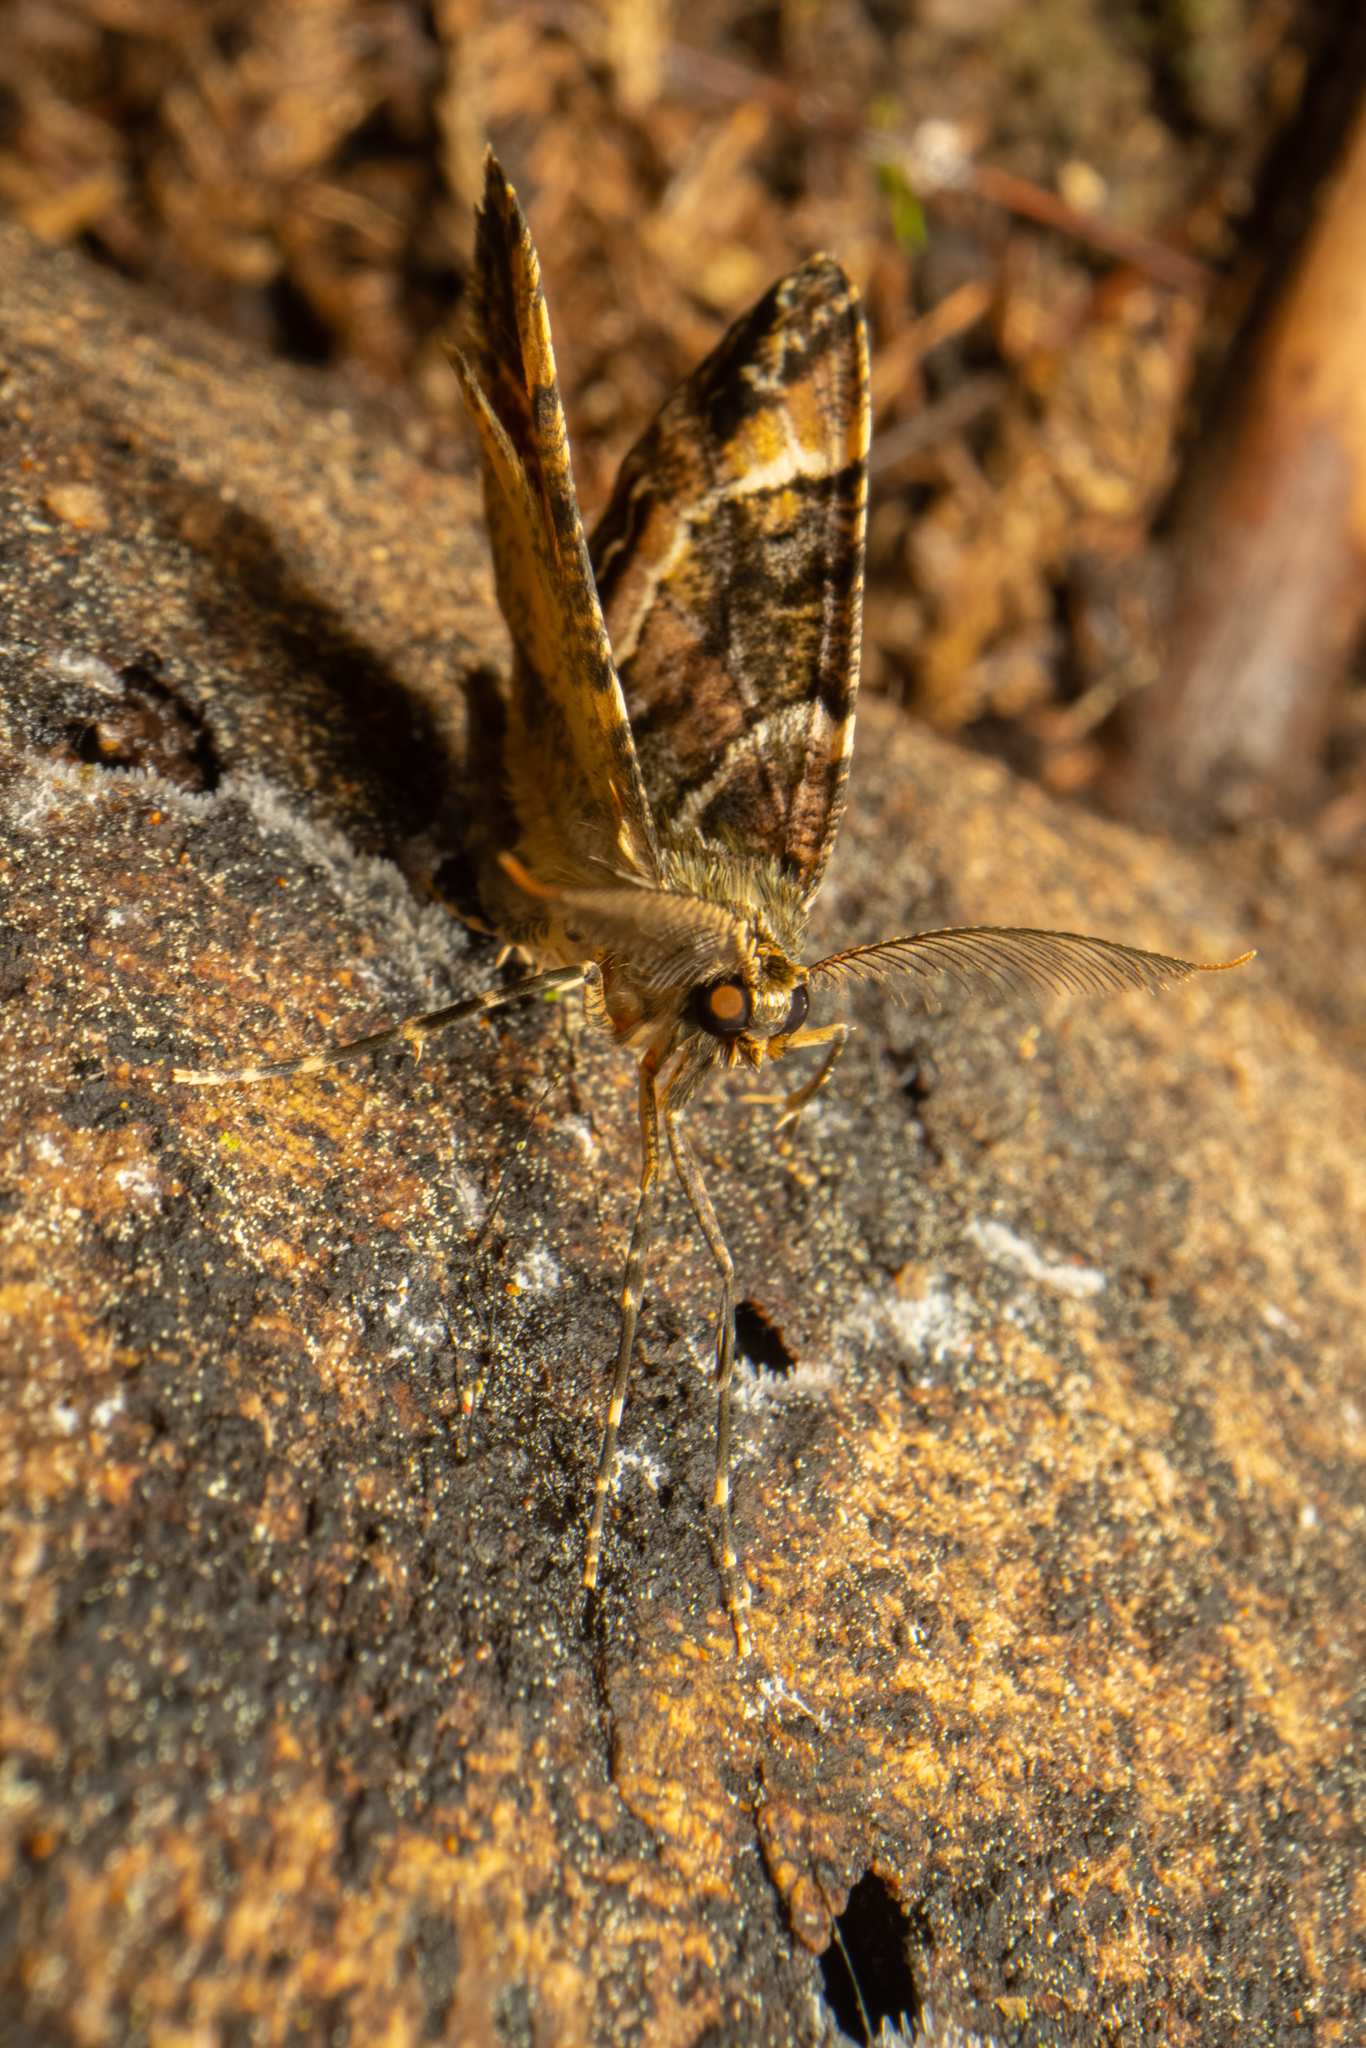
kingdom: Animalia
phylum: Arthropoda
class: Insecta
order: Lepidoptera
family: Geometridae
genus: Pseudocoremia
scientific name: Pseudocoremia productata
